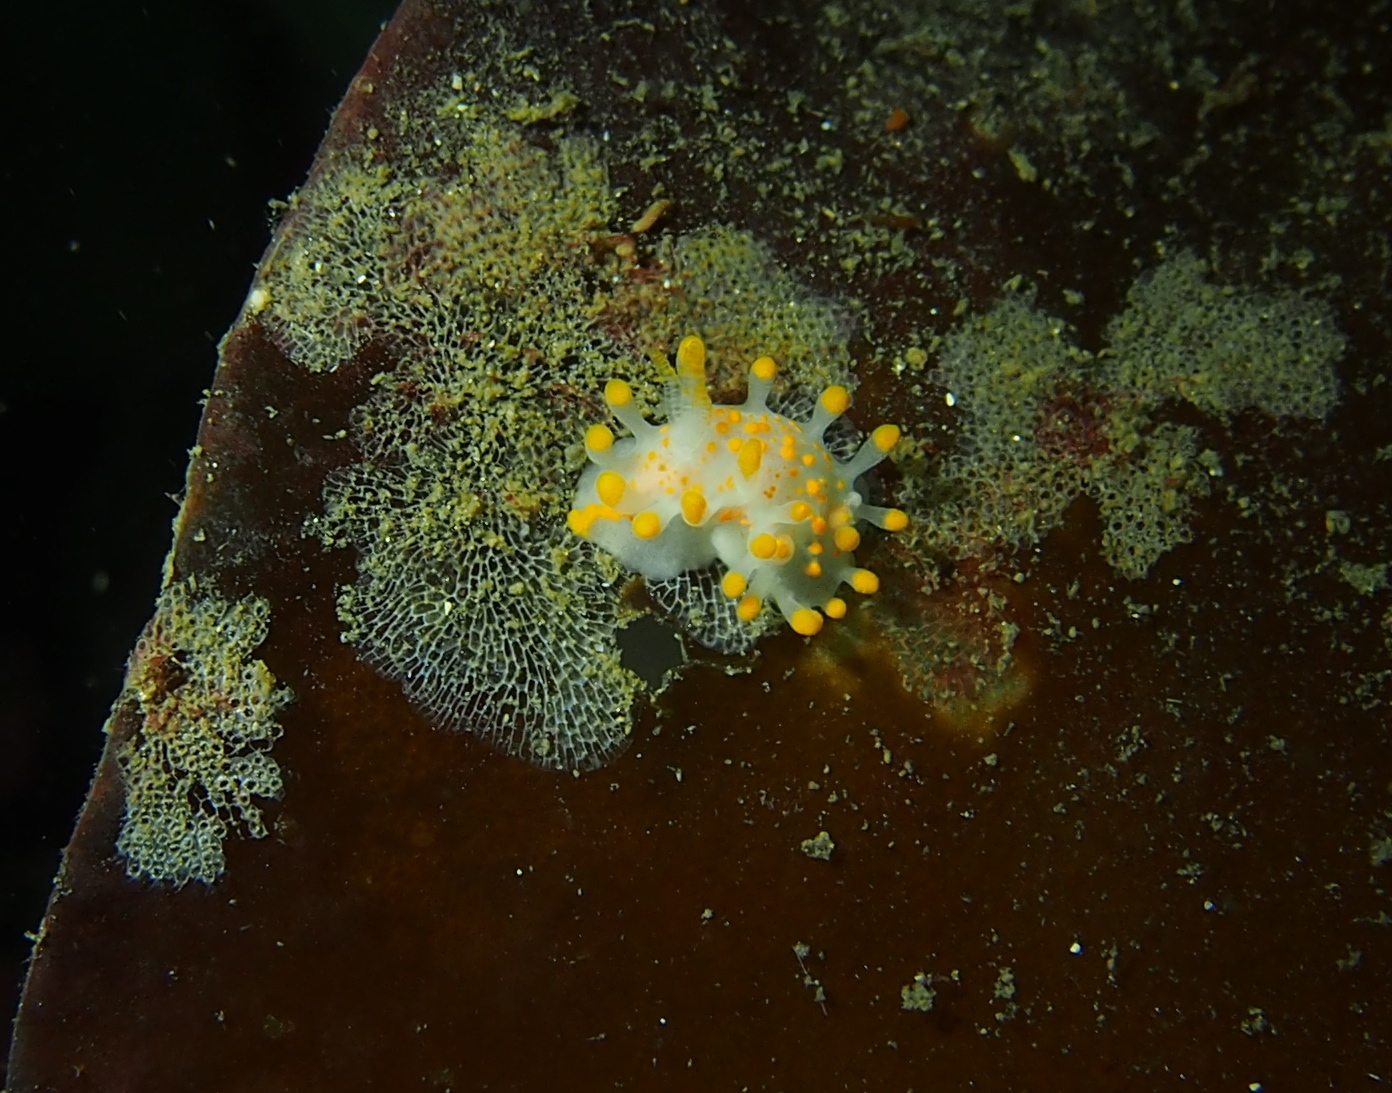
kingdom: Animalia
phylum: Mollusca
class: Gastropoda
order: Nudibranchia
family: Polyceridae
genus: Limacia
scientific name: Limacia clavigera
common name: Orange-clubbed sea slug
